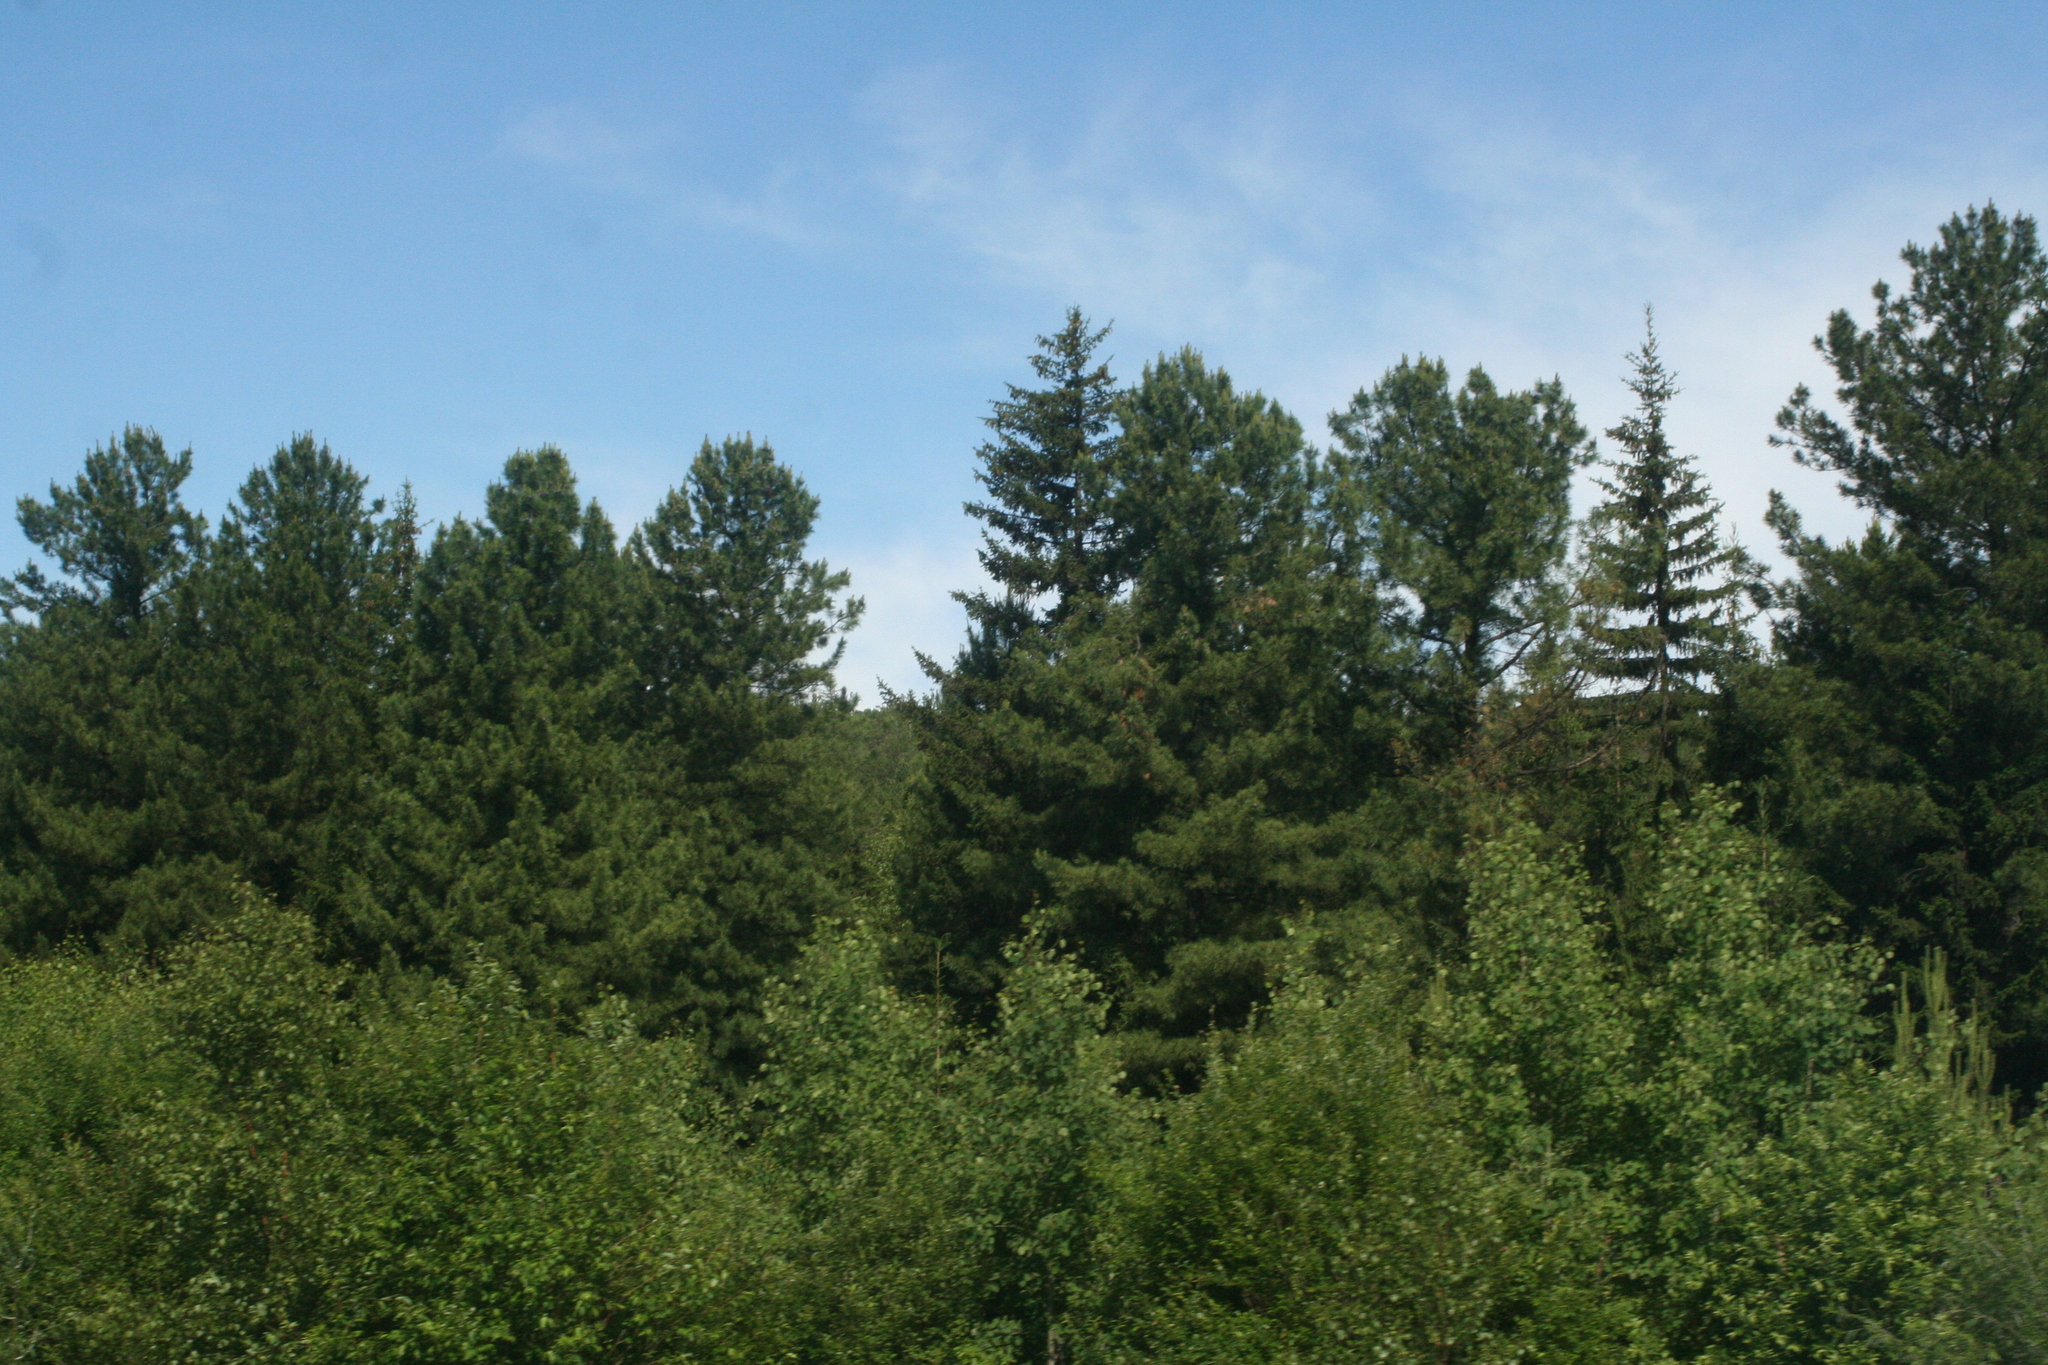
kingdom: Plantae
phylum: Tracheophyta
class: Pinopsida
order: Pinales
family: Pinaceae
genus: Picea
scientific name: Picea obovata
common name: Siberian spruce
